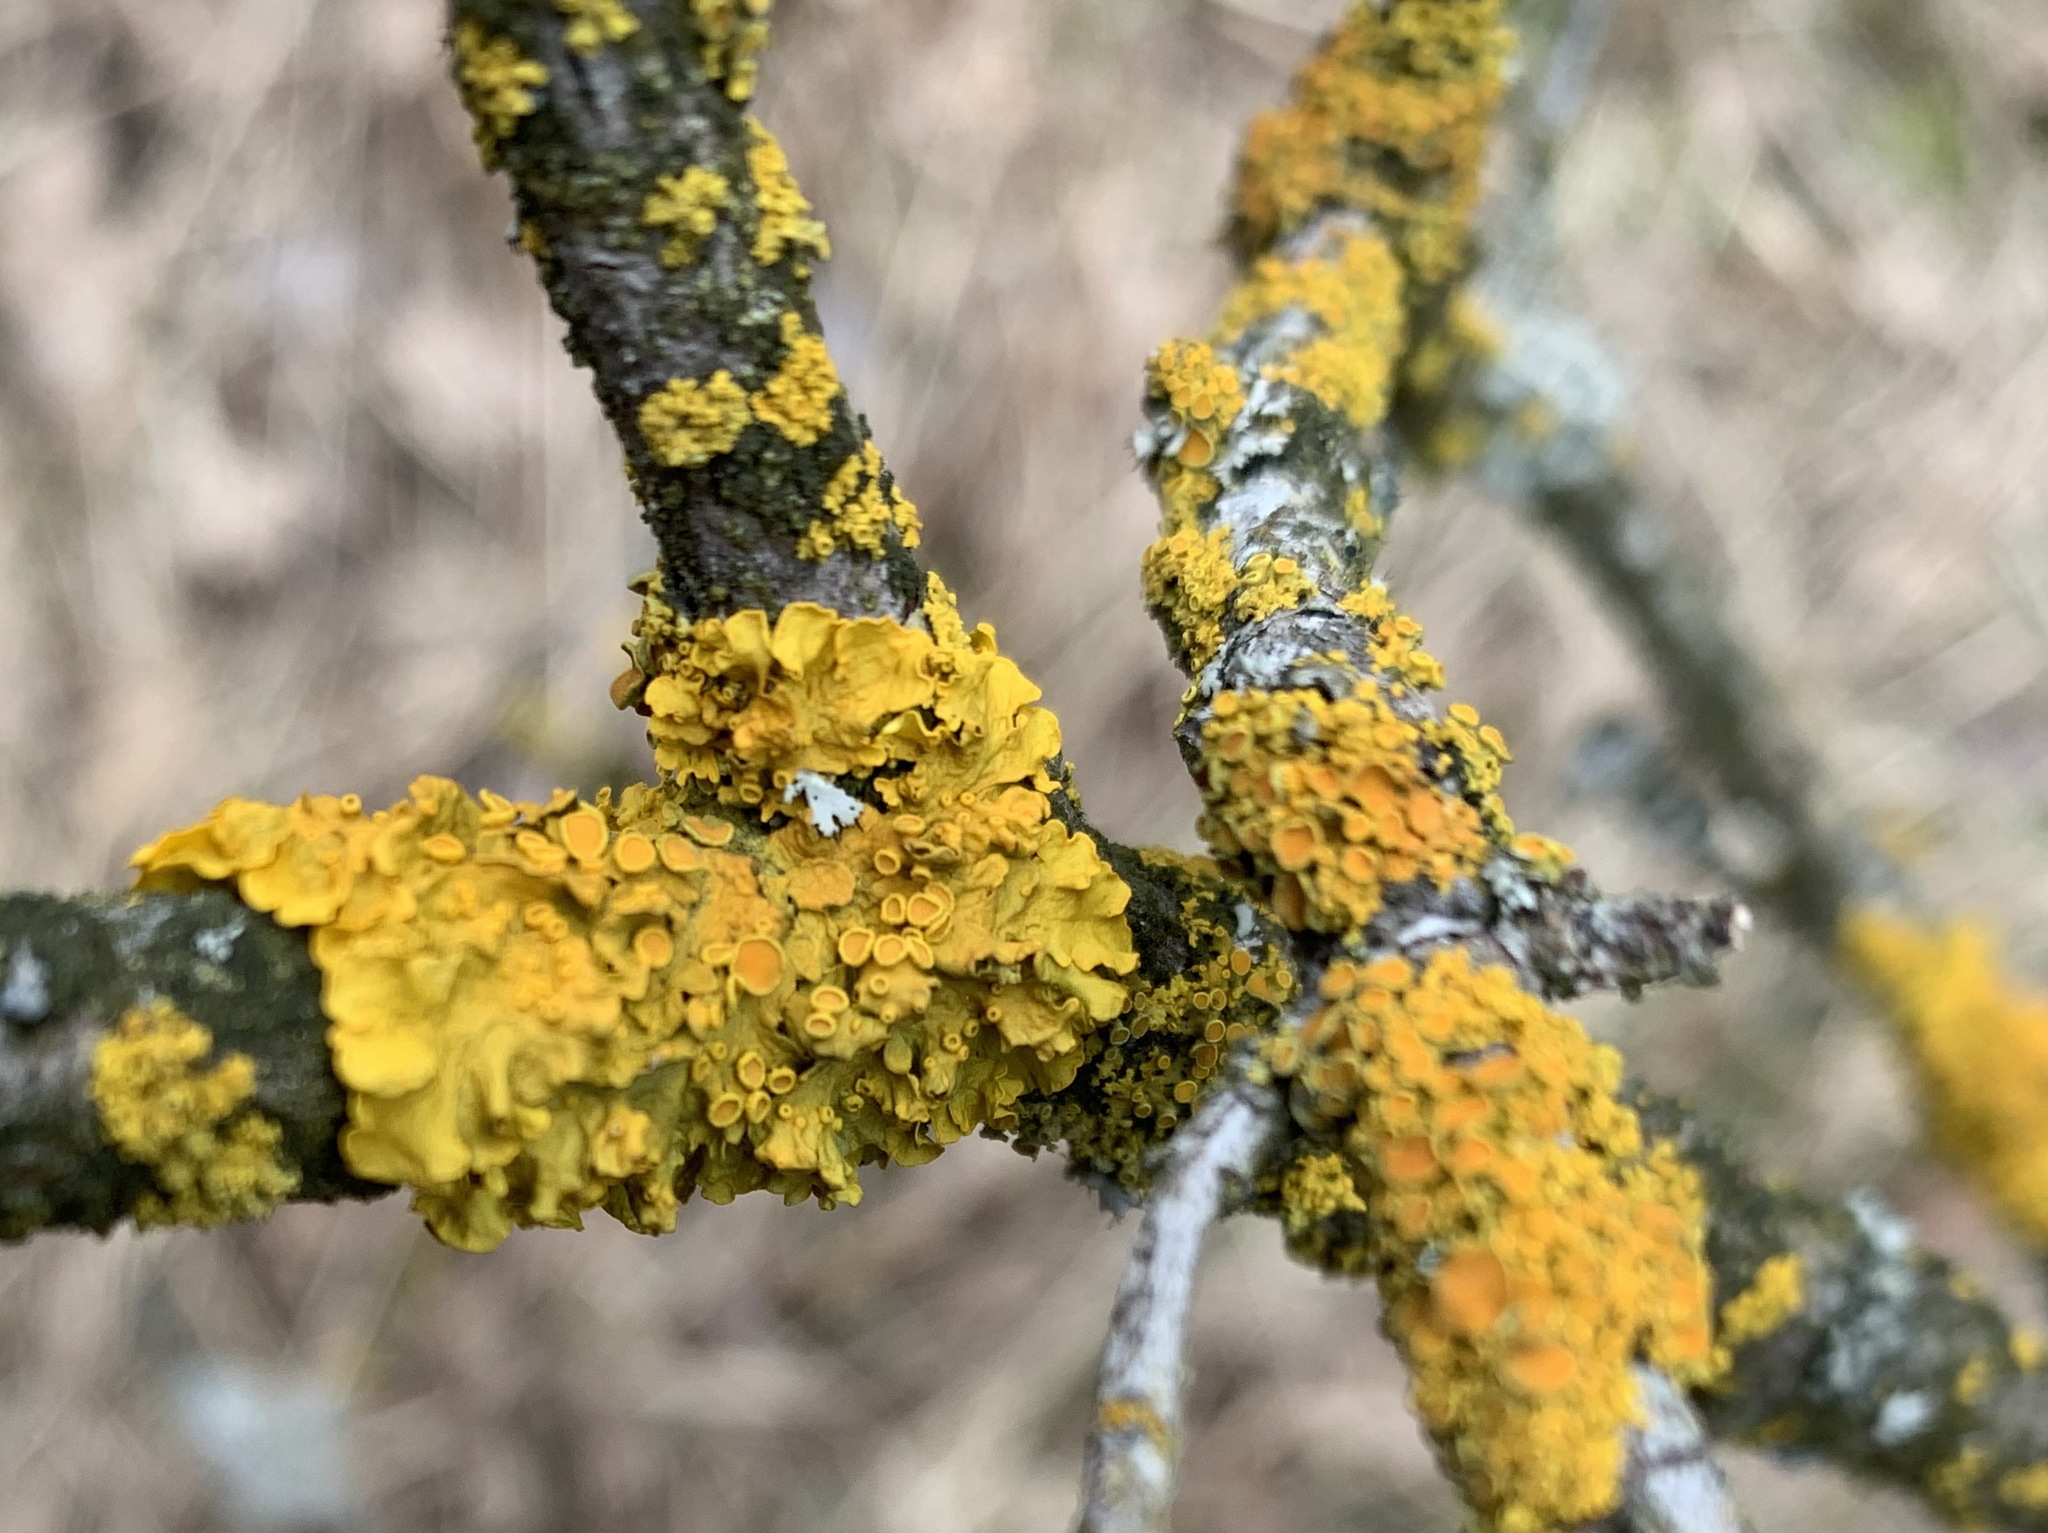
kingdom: Fungi
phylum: Ascomycota
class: Lecanoromycetes
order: Teloschistales
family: Teloschistaceae
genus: Xanthoria
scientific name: Xanthoria parietina
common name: Common orange lichen
